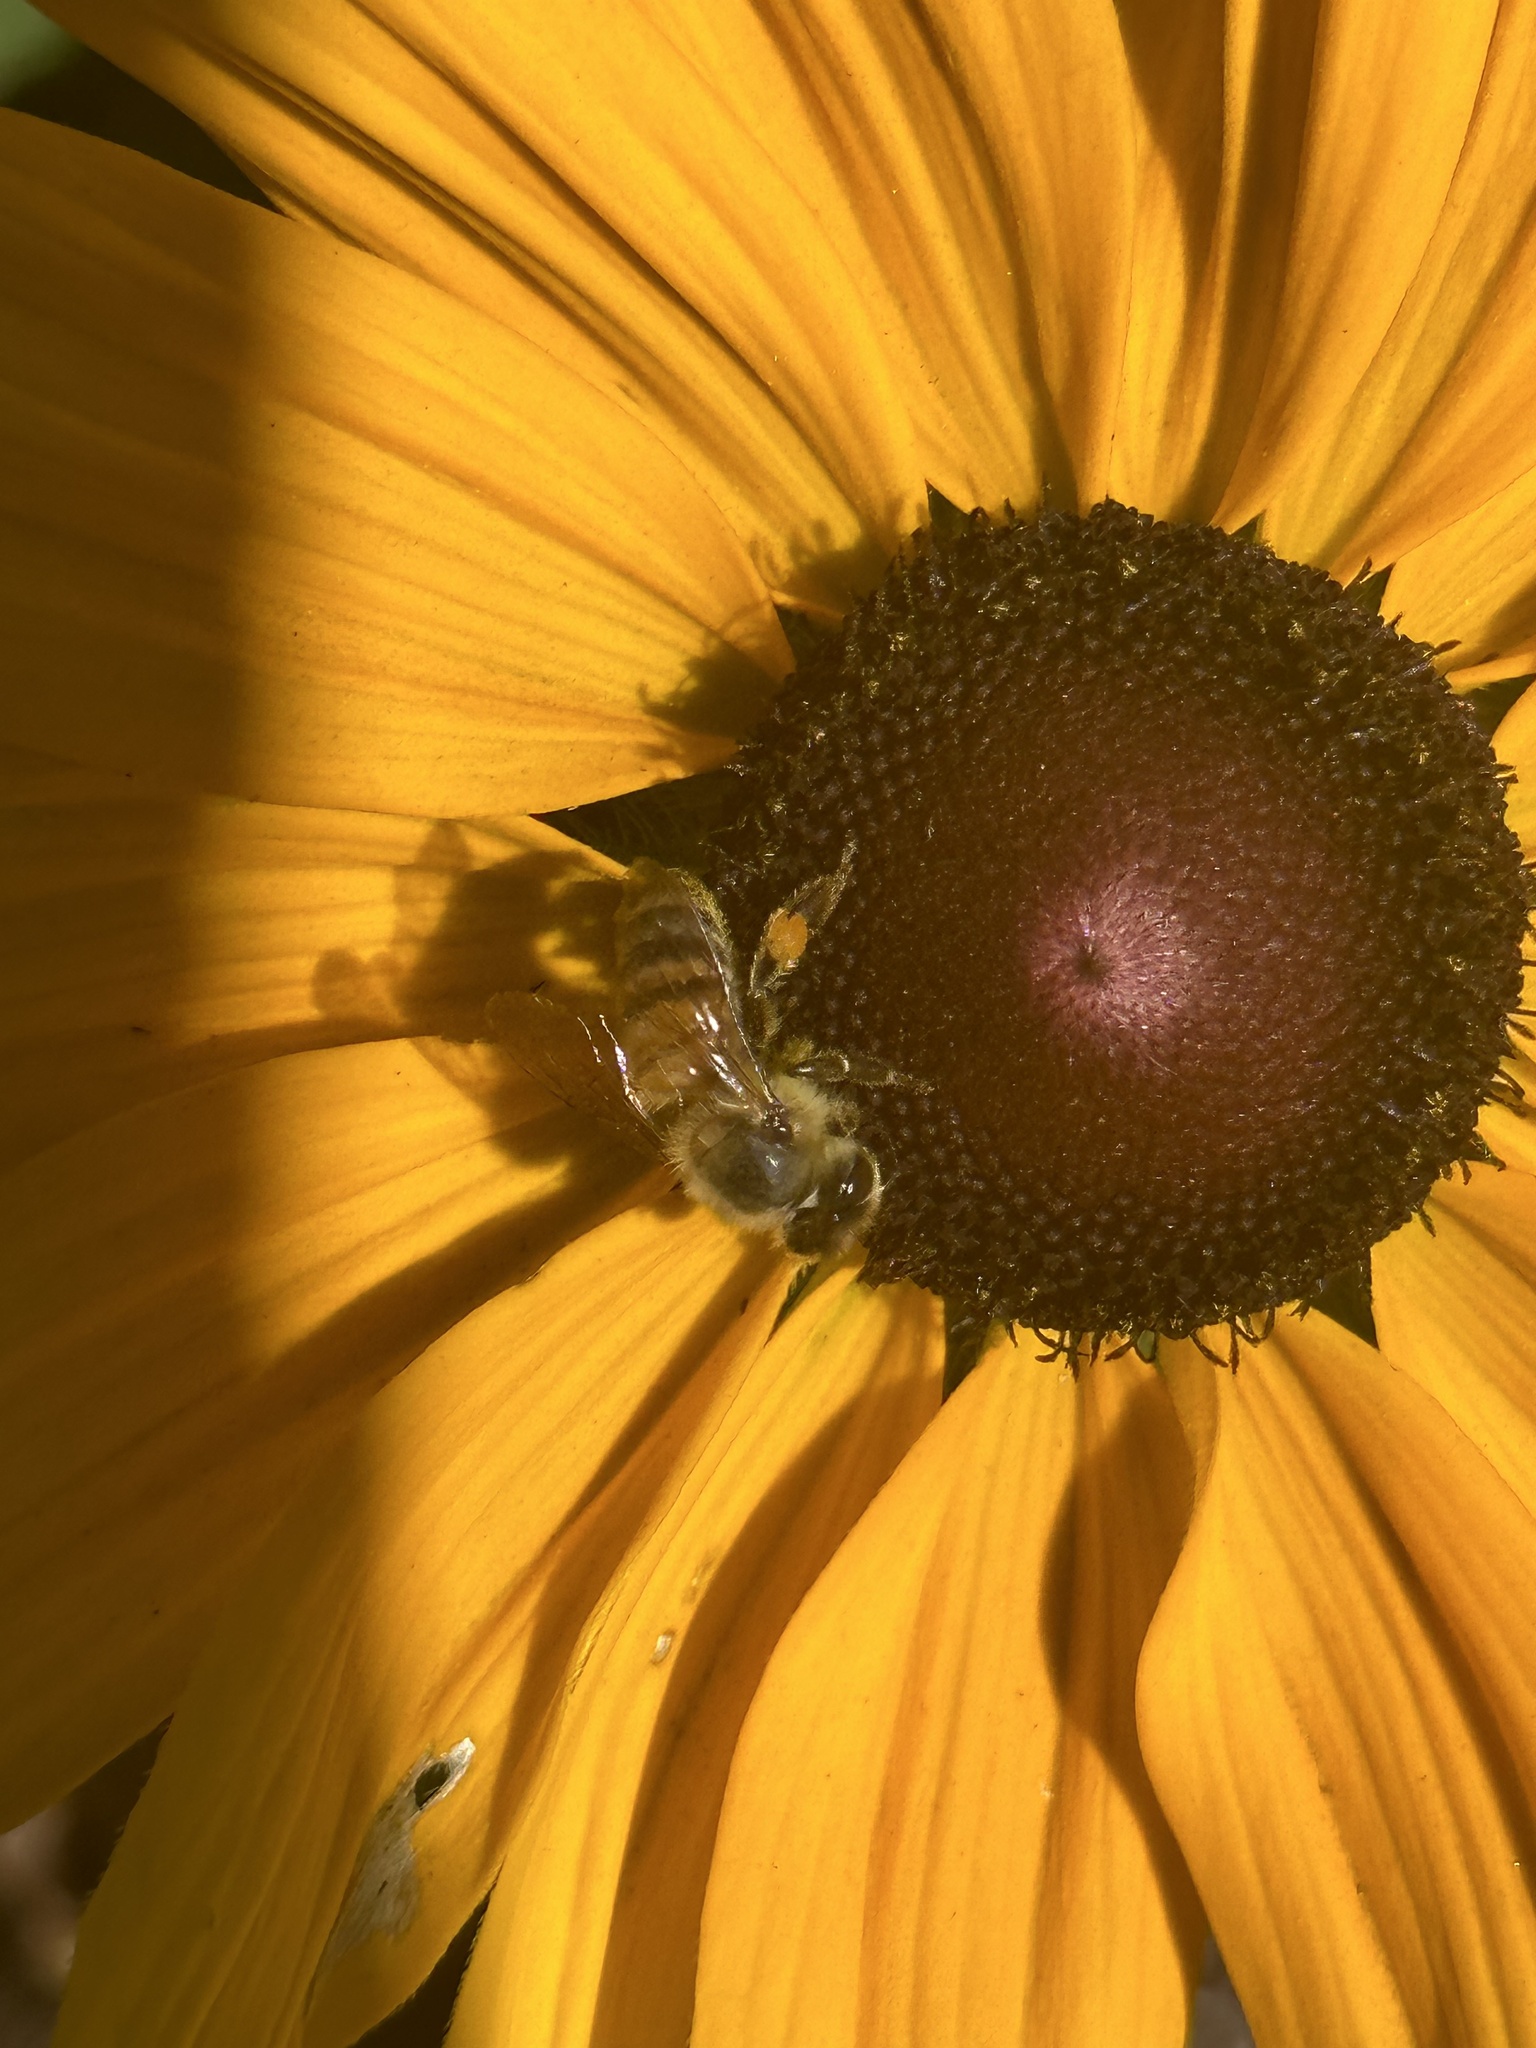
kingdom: Animalia
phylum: Arthropoda
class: Insecta
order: Hymenoptera
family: Apidae
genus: Apis
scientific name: Apis mellifera
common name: Honey bee
